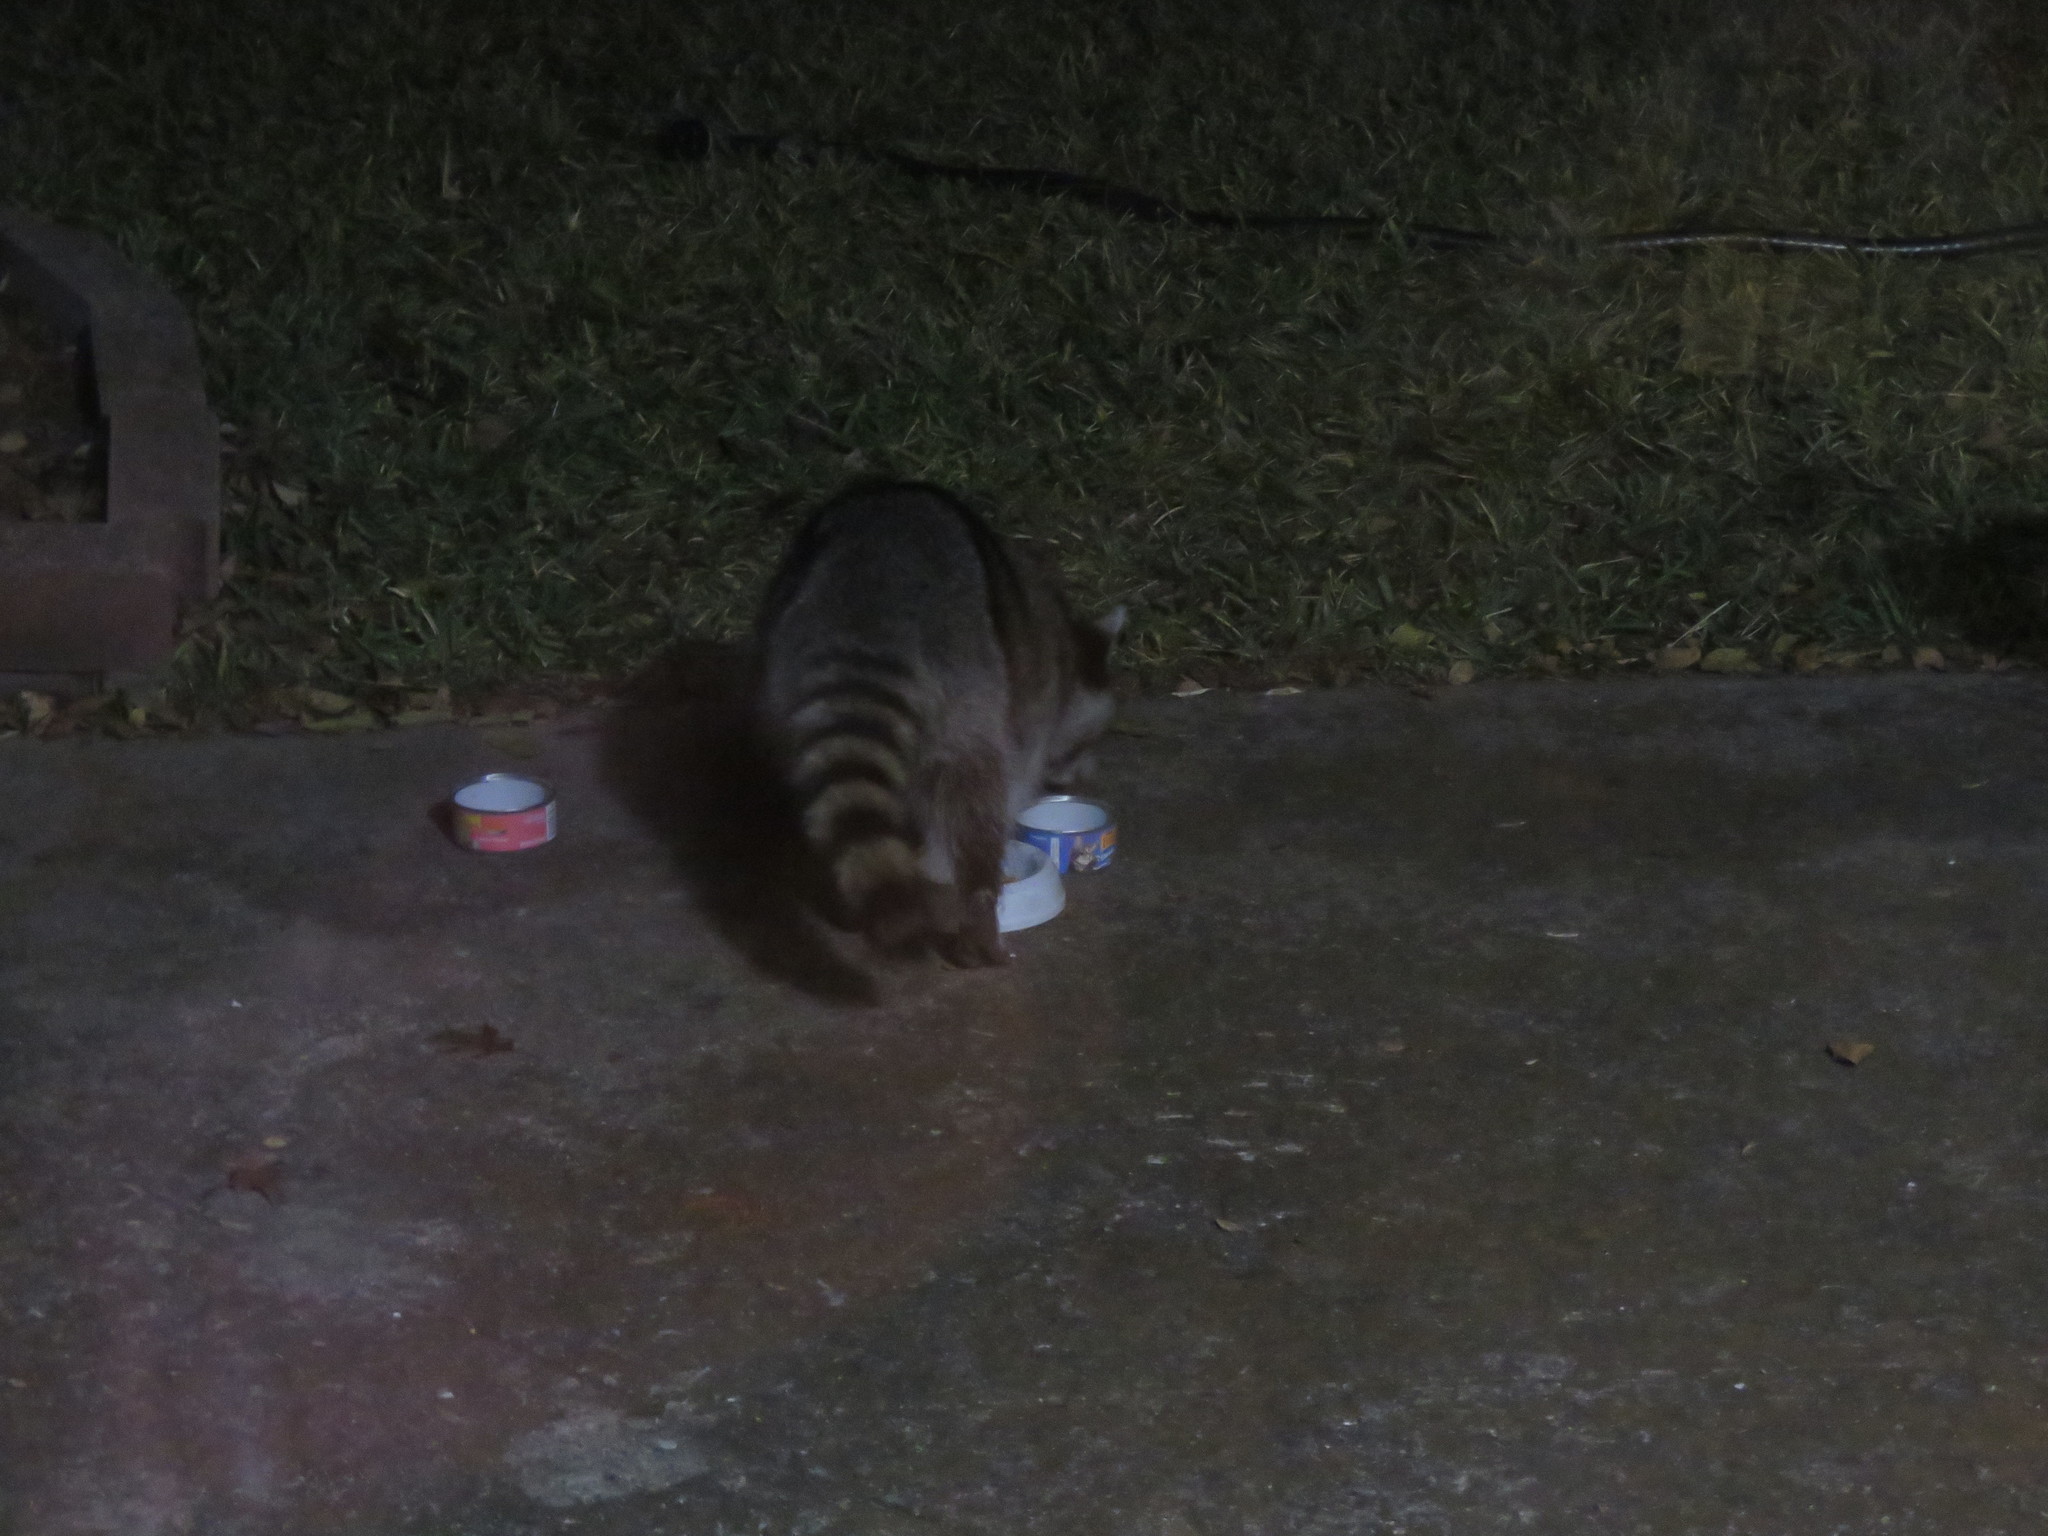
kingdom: Animalia
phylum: Chordata
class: Mammalia
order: Carnivora
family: Procyonidae
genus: Procyon
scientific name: Procyon lotor
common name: Raccoon
